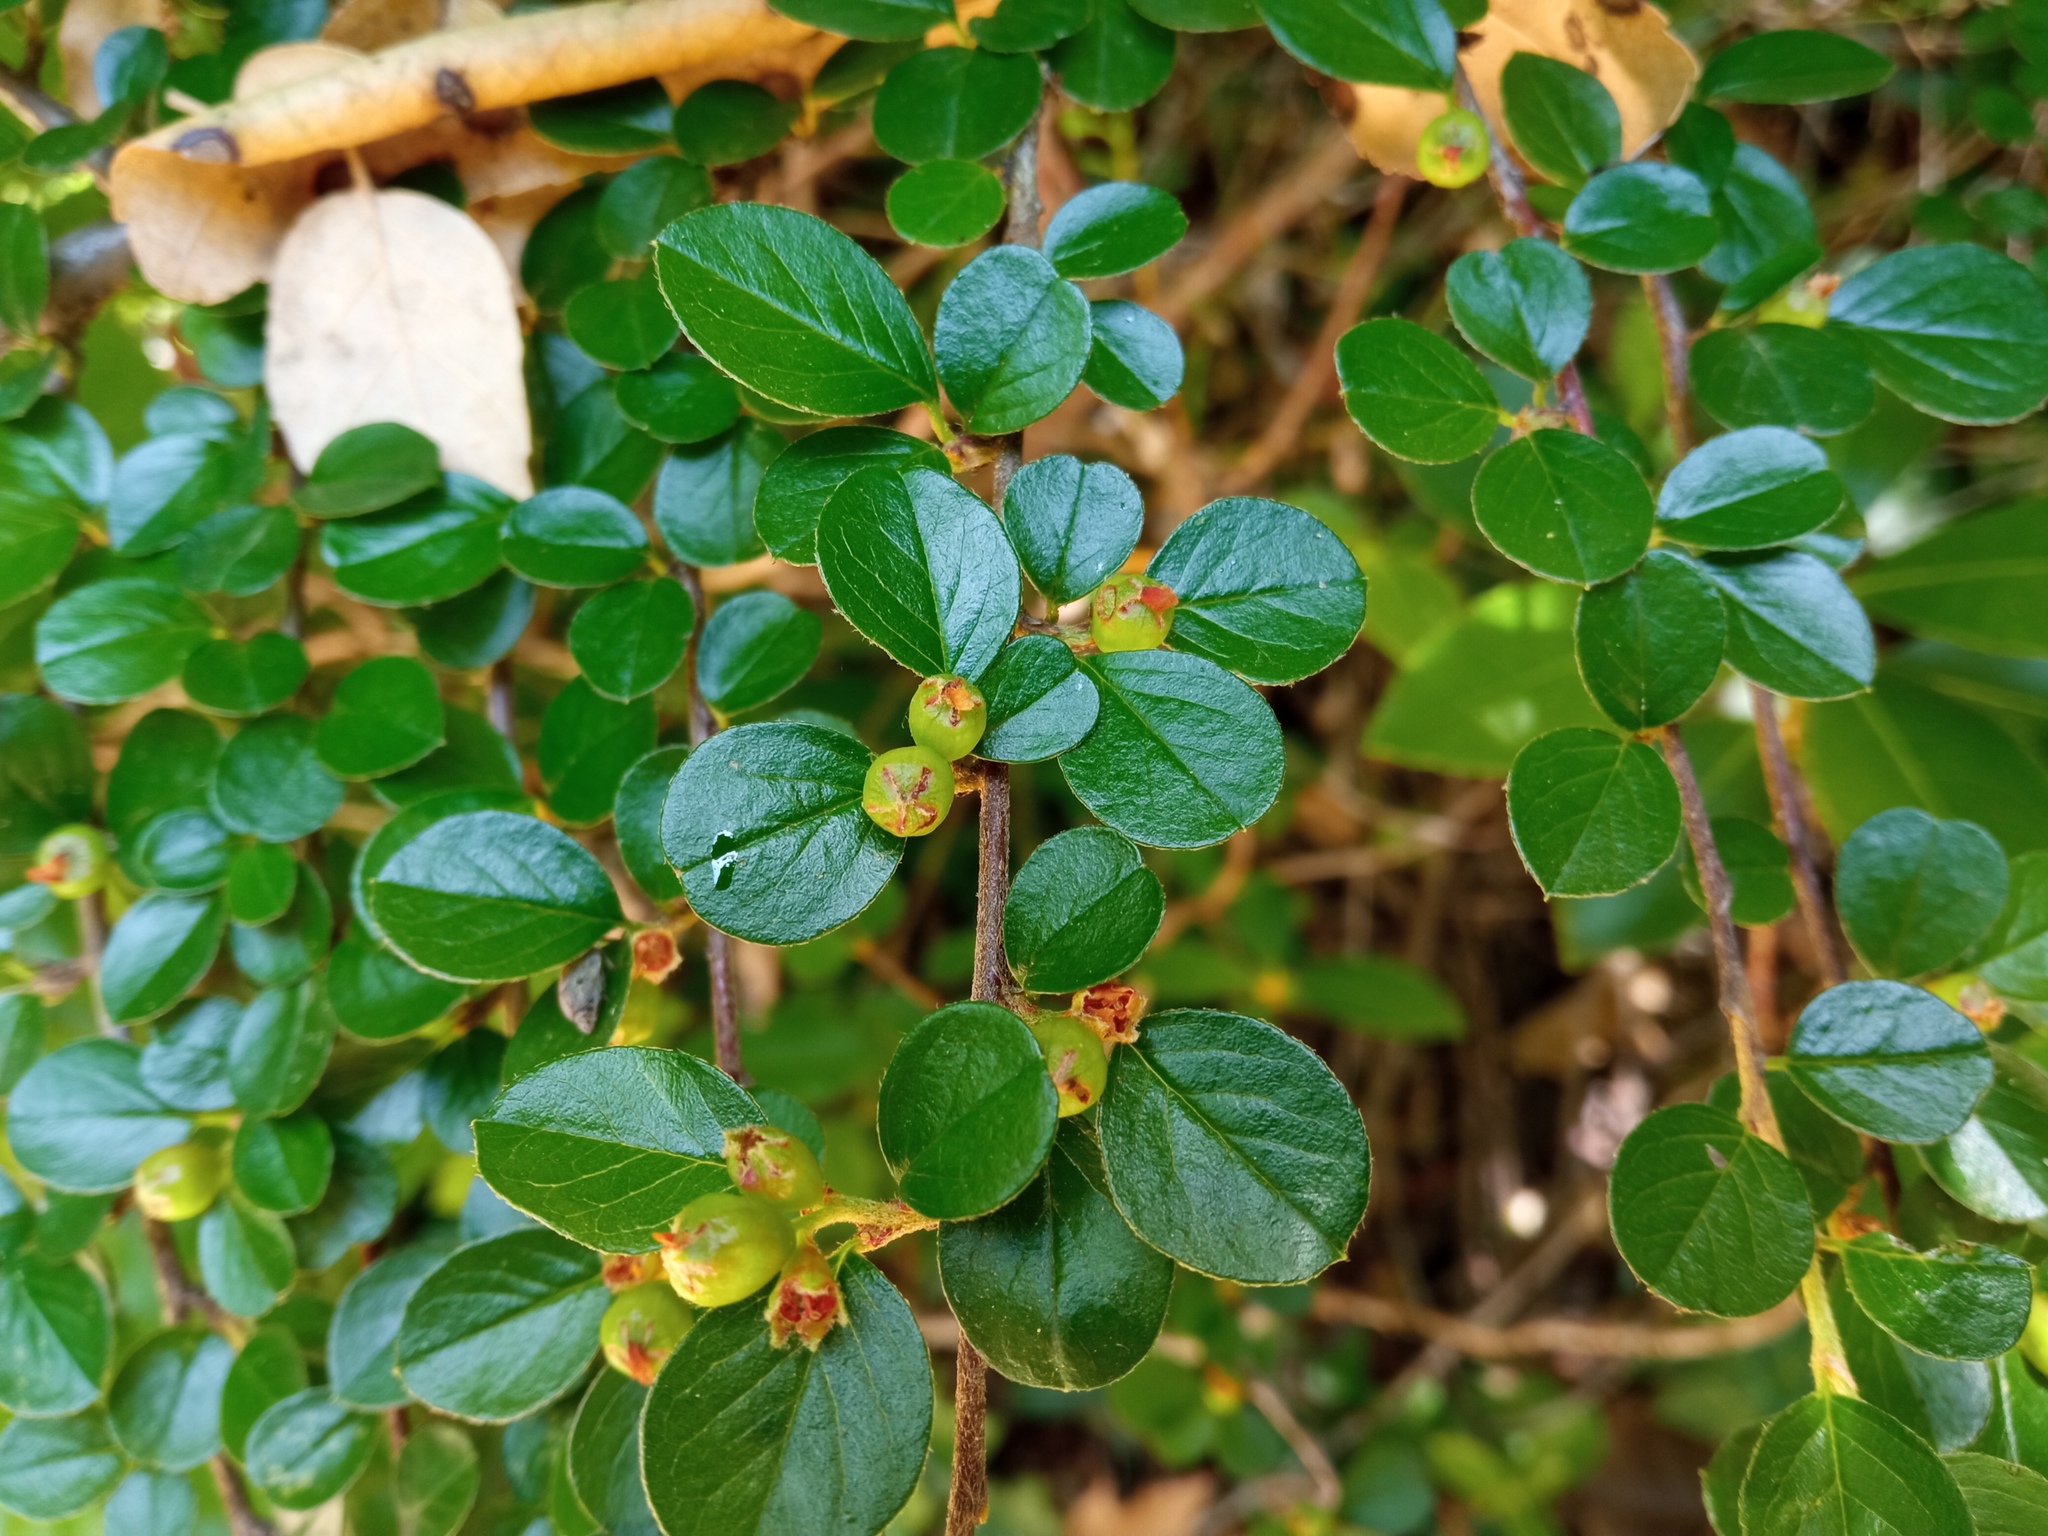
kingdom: Plantae
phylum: Tracheophyta
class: Magnoliopsida
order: Rosales
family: Rosaceae
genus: Cotoneaster
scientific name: Cotoneaster hjelmqvistii
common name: Hjelmqvist's cotoneaster
